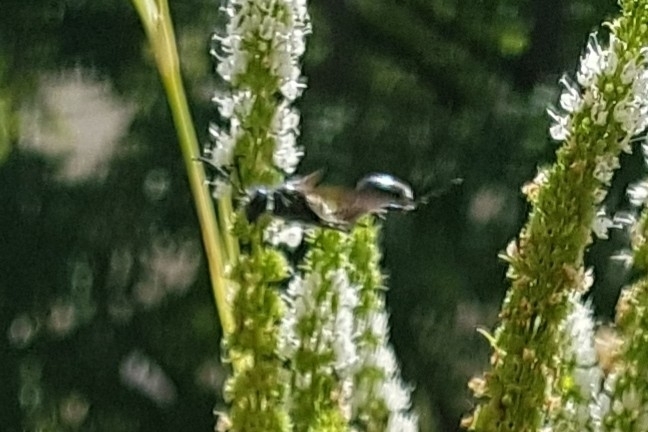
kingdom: Animalia
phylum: Arthropoda
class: Insecta
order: Hymenoptera
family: Sphecidae
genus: Isodontia
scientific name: Isodontia mexicana
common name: Mud dauber
